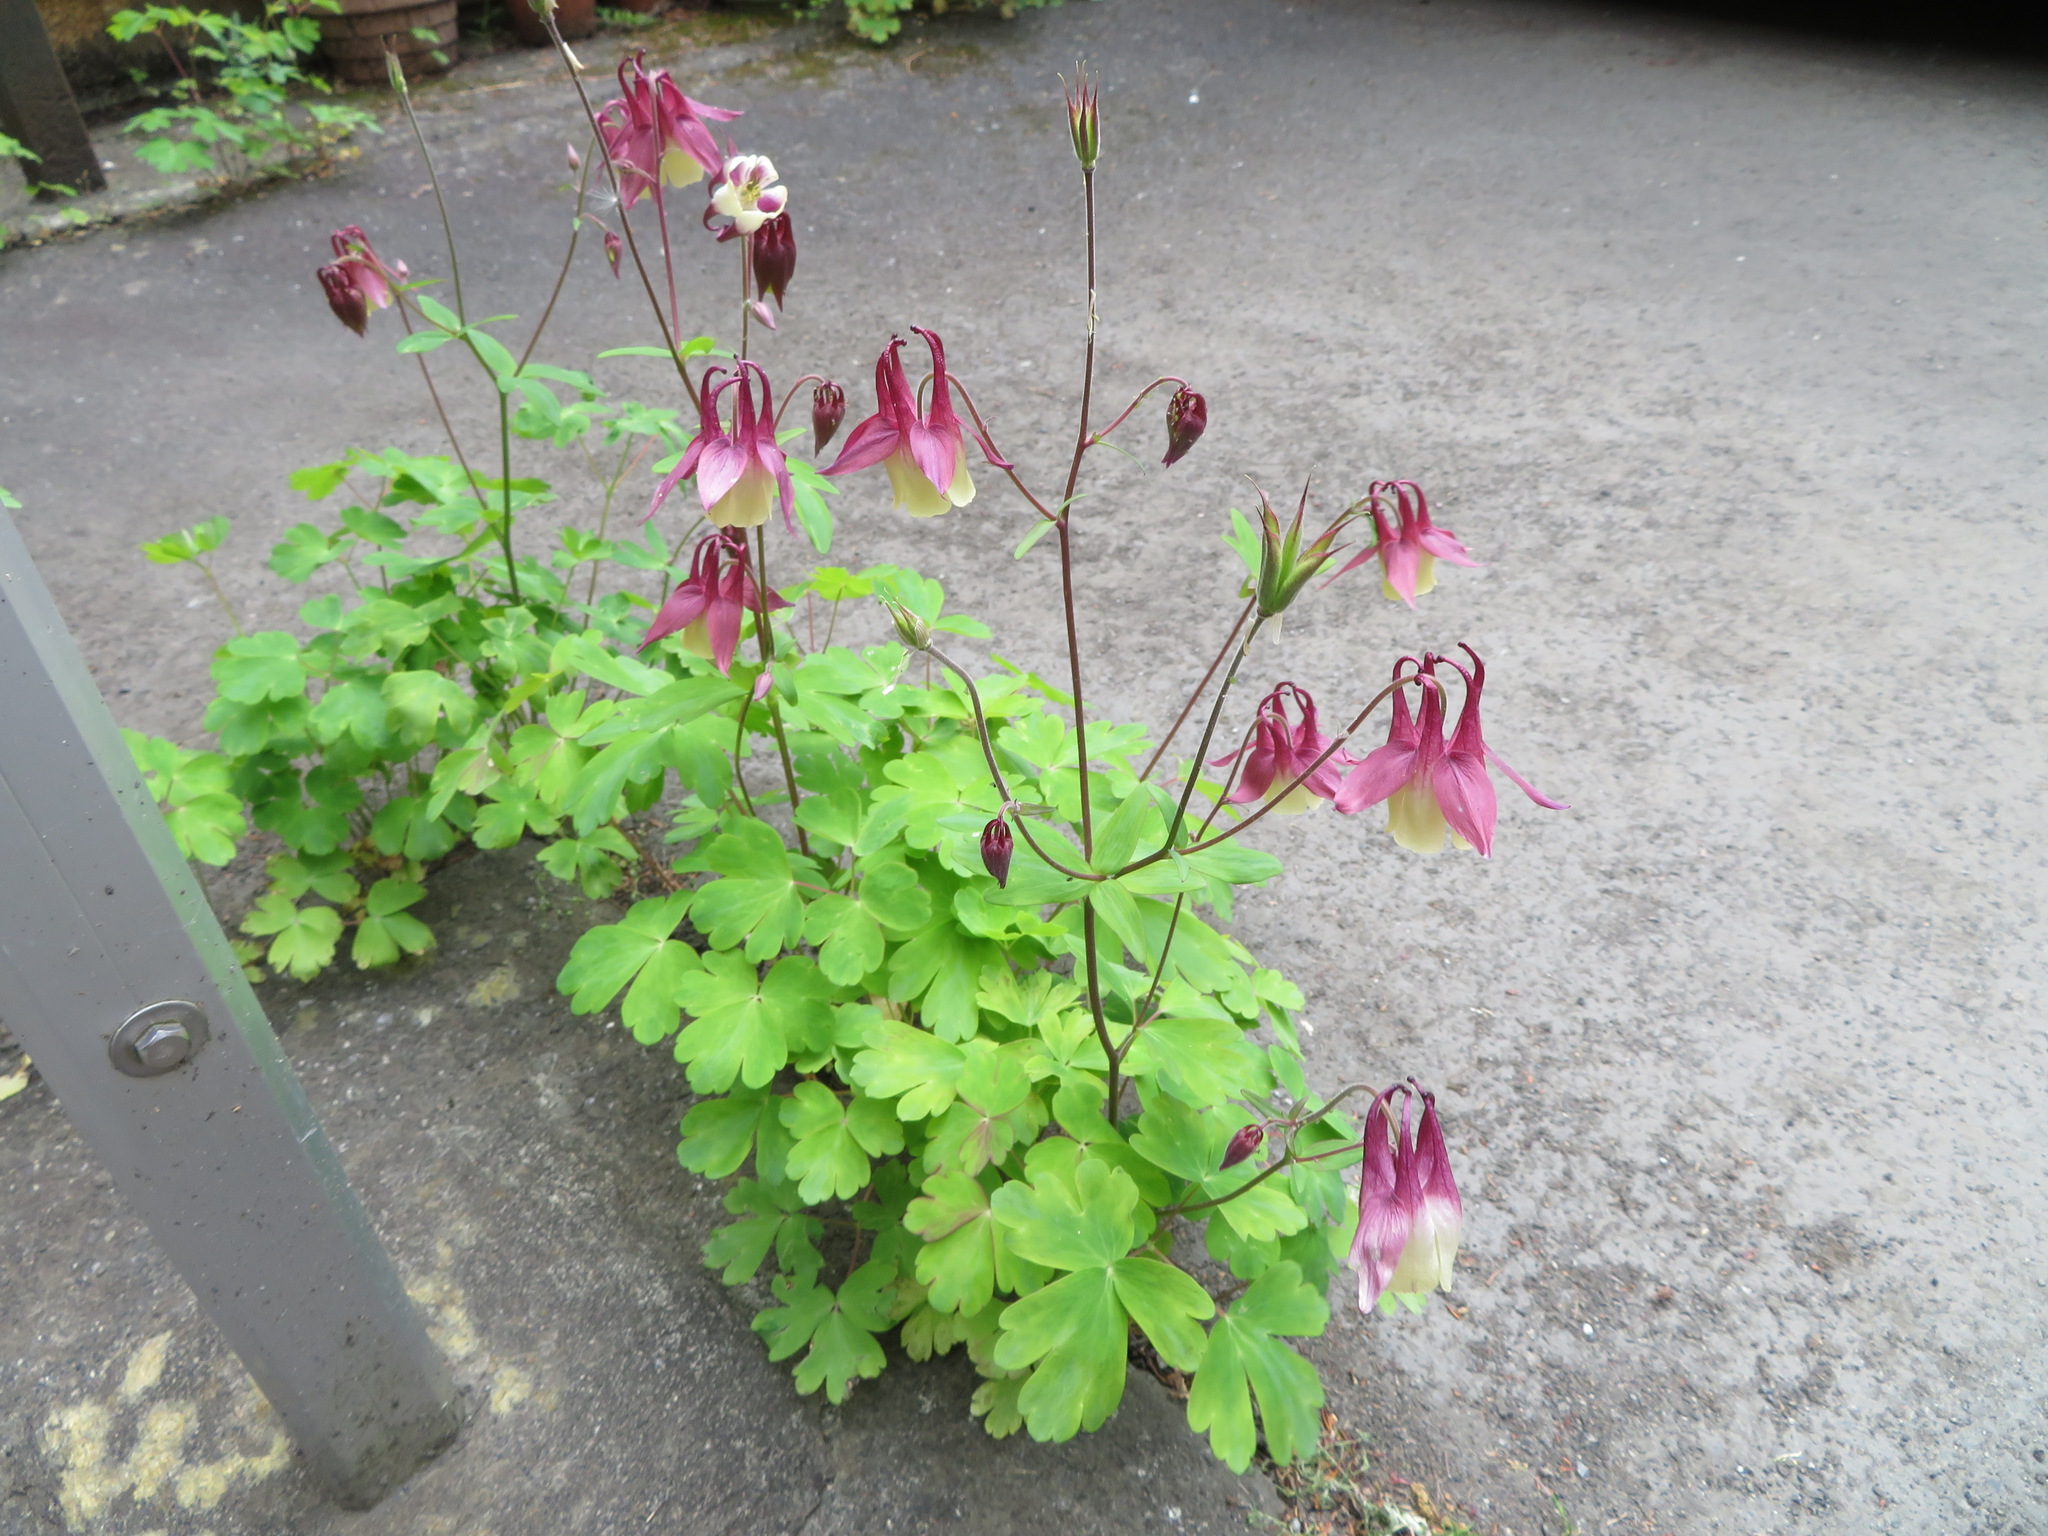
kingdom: Plantae
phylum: Tracheophyta
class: Magnoliopsida
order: Ranunculales
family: Ranunculaceae
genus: Aquilegia
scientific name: Aquilegia buergeriana
